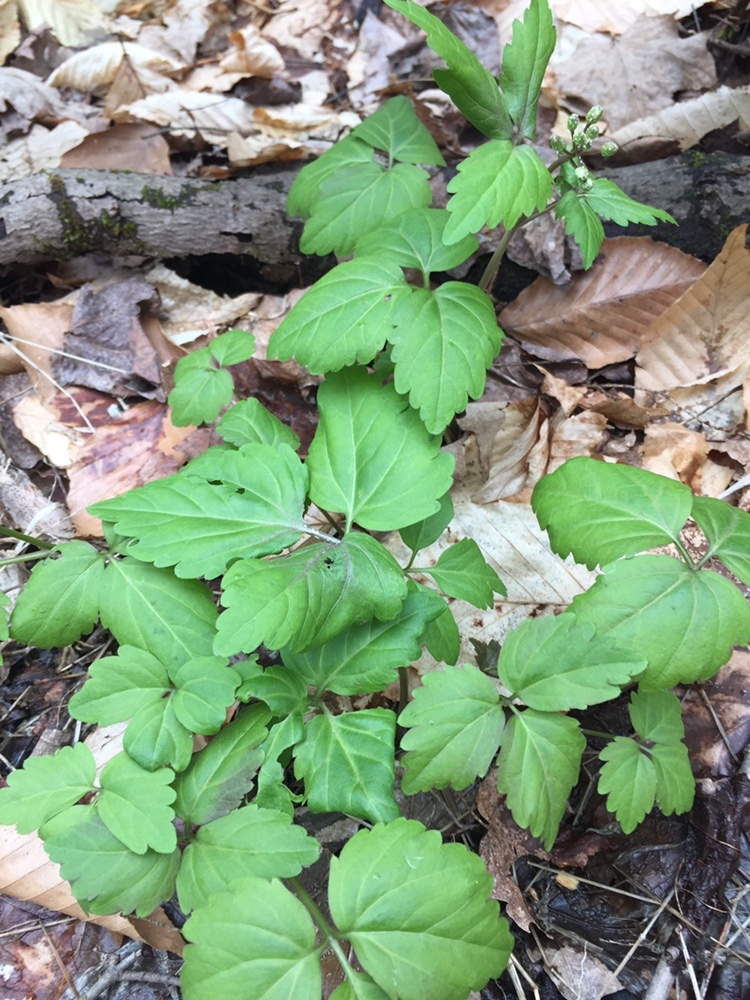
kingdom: Plantae
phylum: Tracheophyta
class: Magnoliopsida
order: Brassicales
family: Brassicaceae
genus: Cardamine
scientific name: Cardamine diphylla
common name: Broad-leaved toothwort
